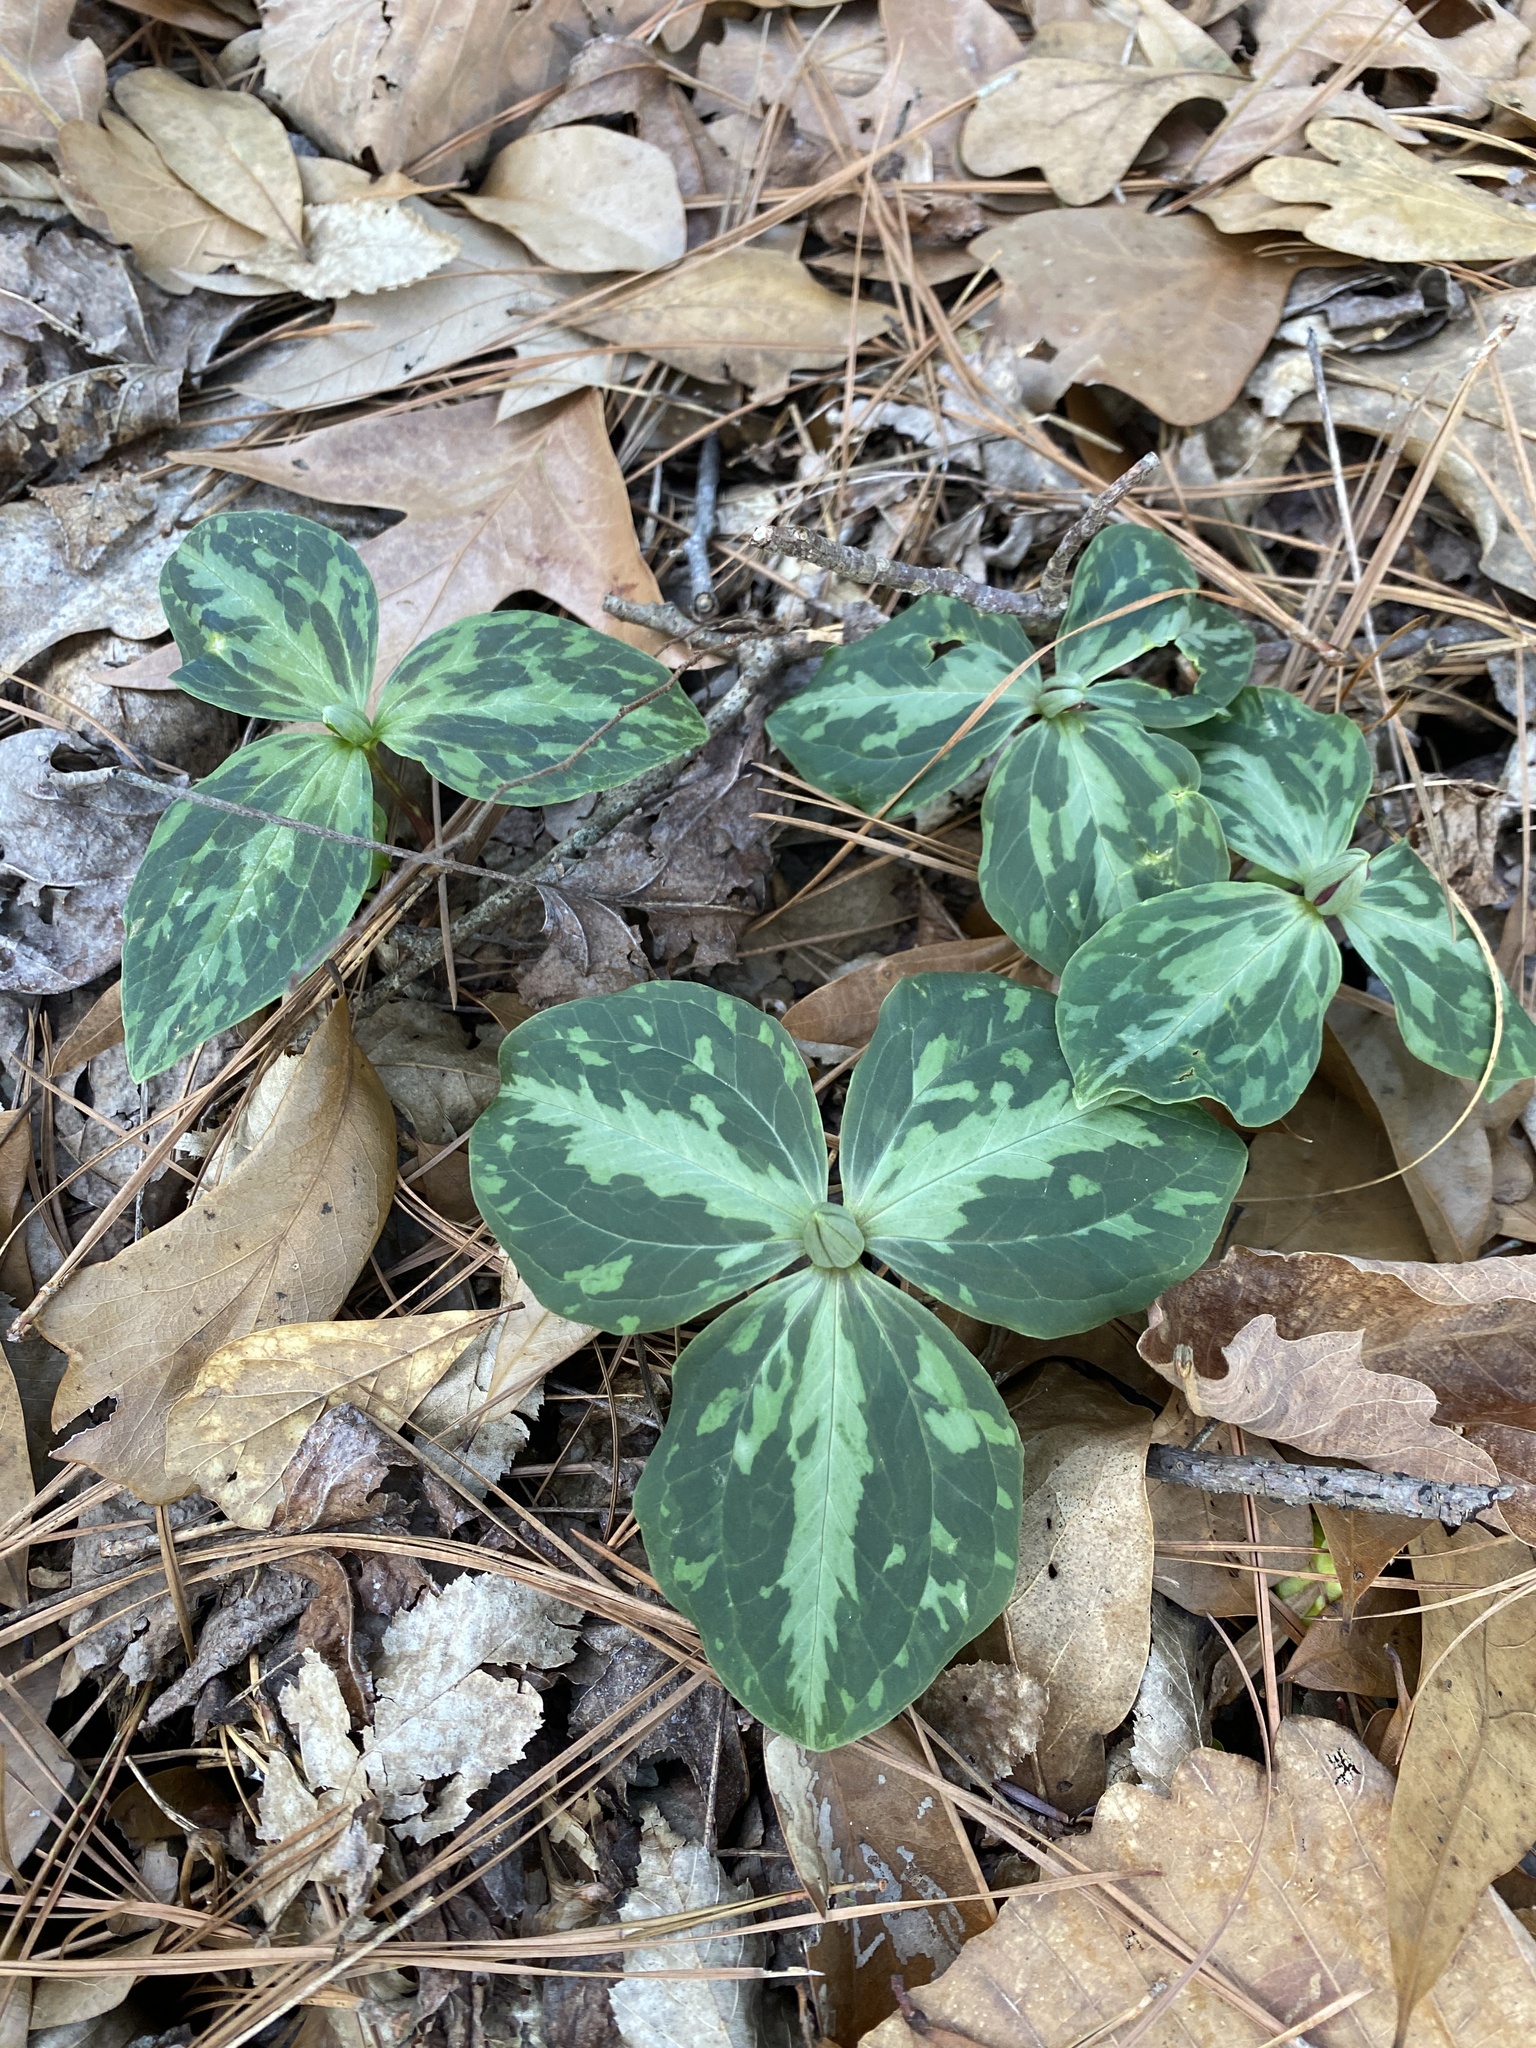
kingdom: Plantae
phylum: Tracheophyta
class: Liliopsida
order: Liliales
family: Melanthiaceae
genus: Trillium
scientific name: Trillium foetidissimum
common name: Mississippi river trillium
